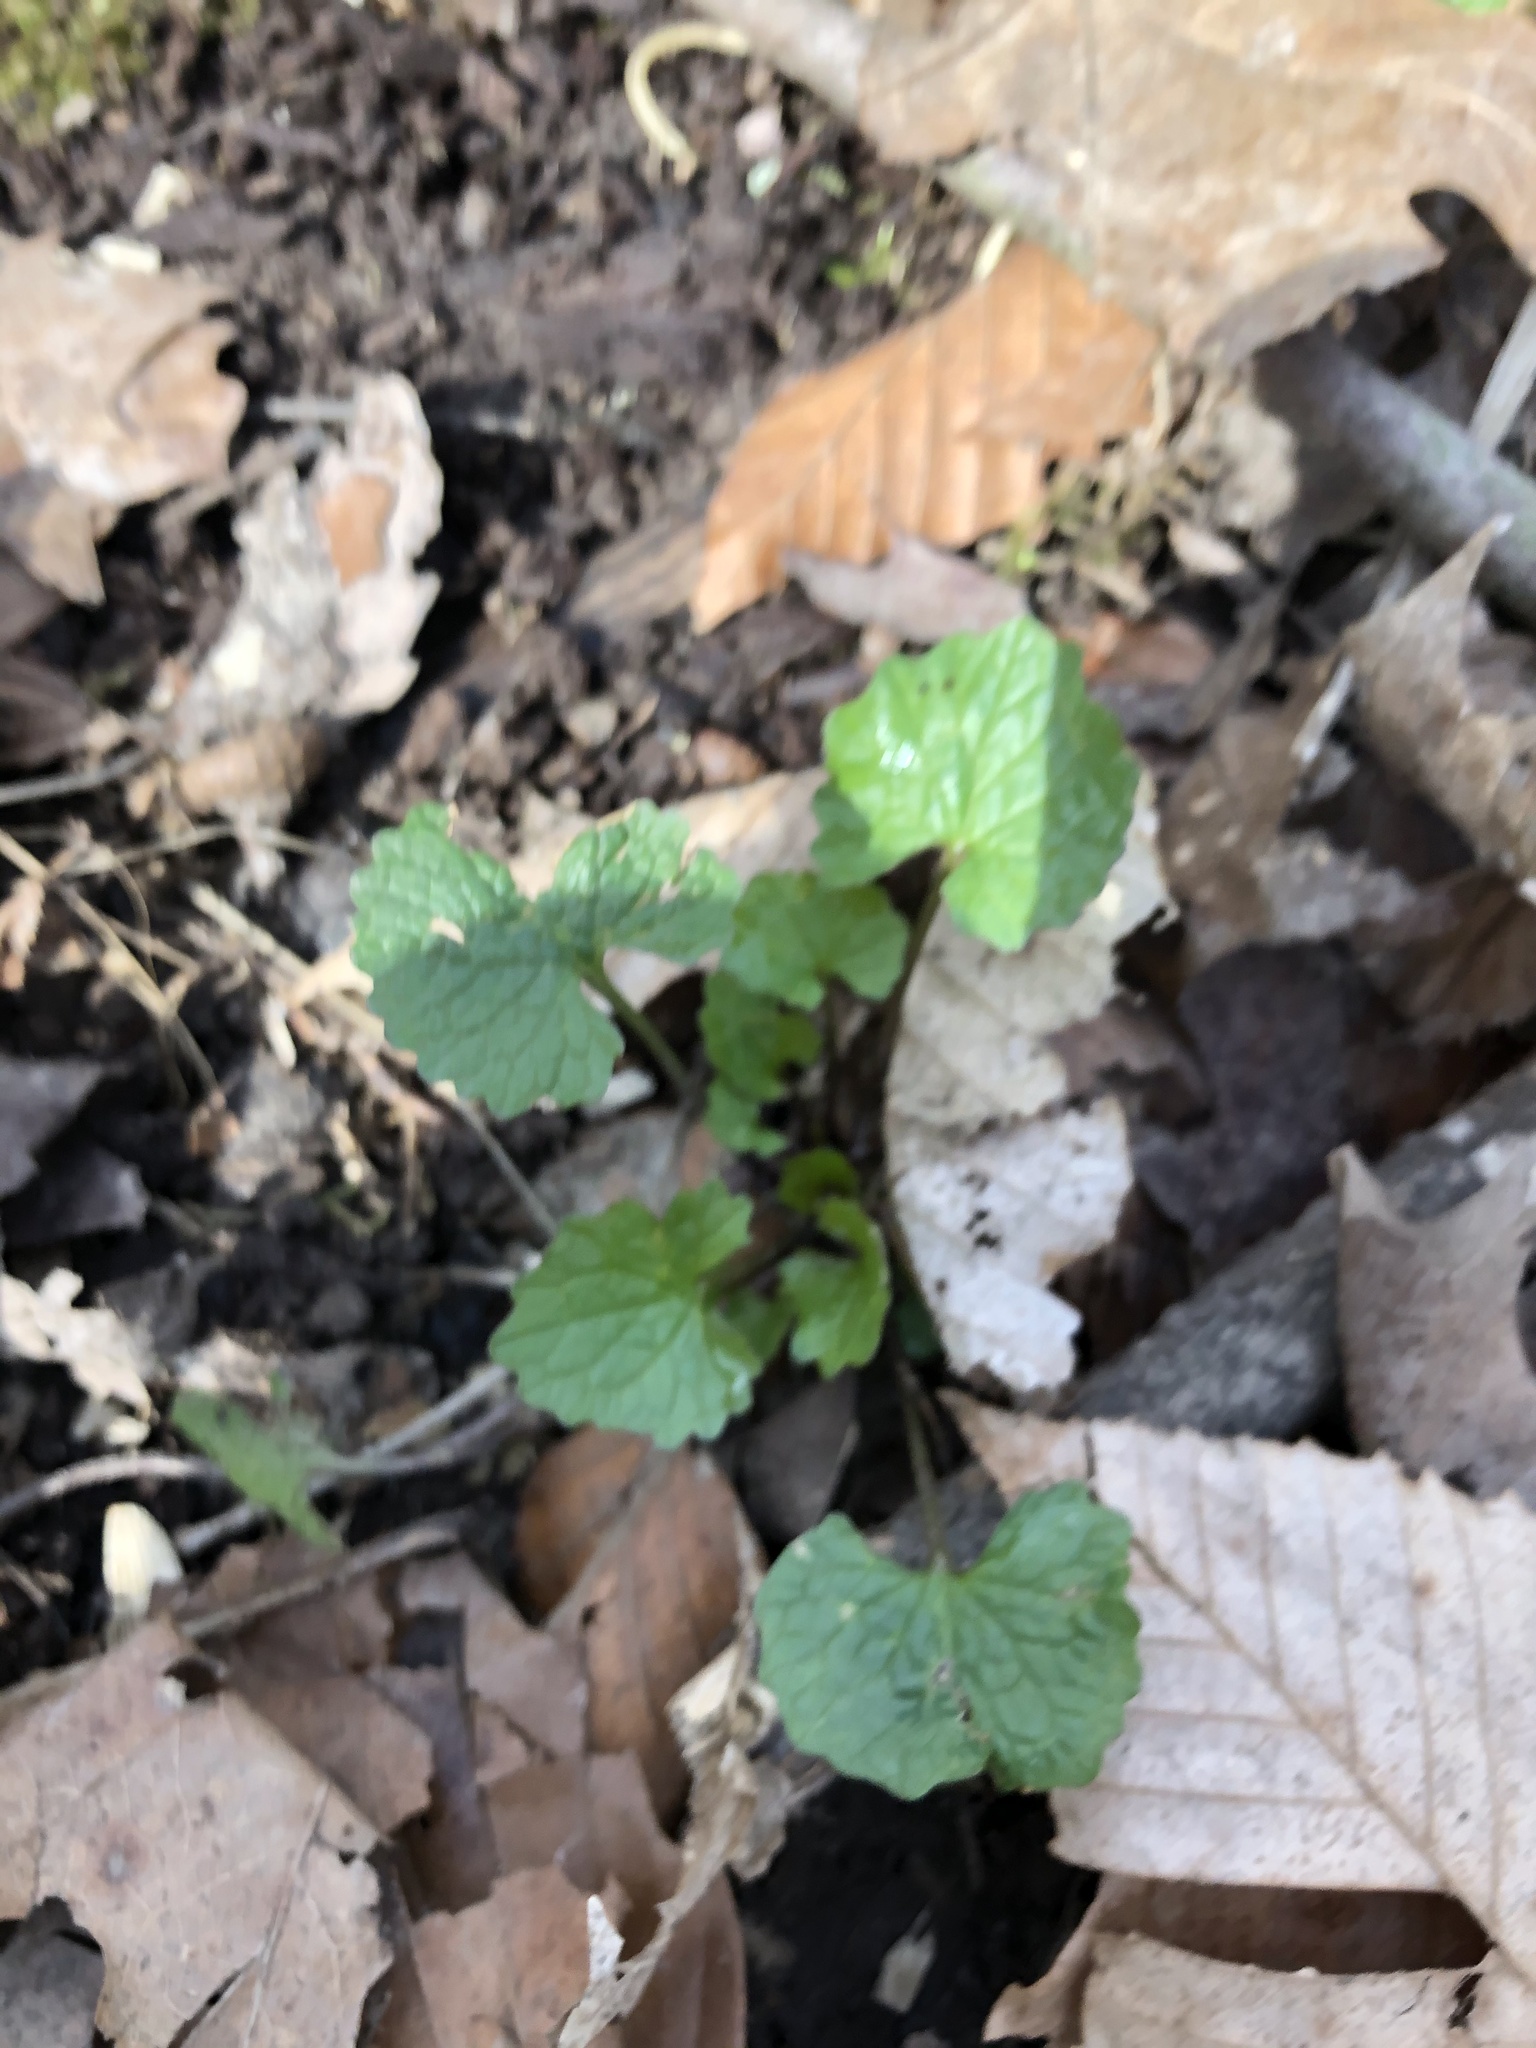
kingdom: Plantae
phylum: Tracheophyta
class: Magnoliopsida
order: Brassicales
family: Brassicaceae
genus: Alliaria
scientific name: Alliaria petiolata
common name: Garlic mustard
